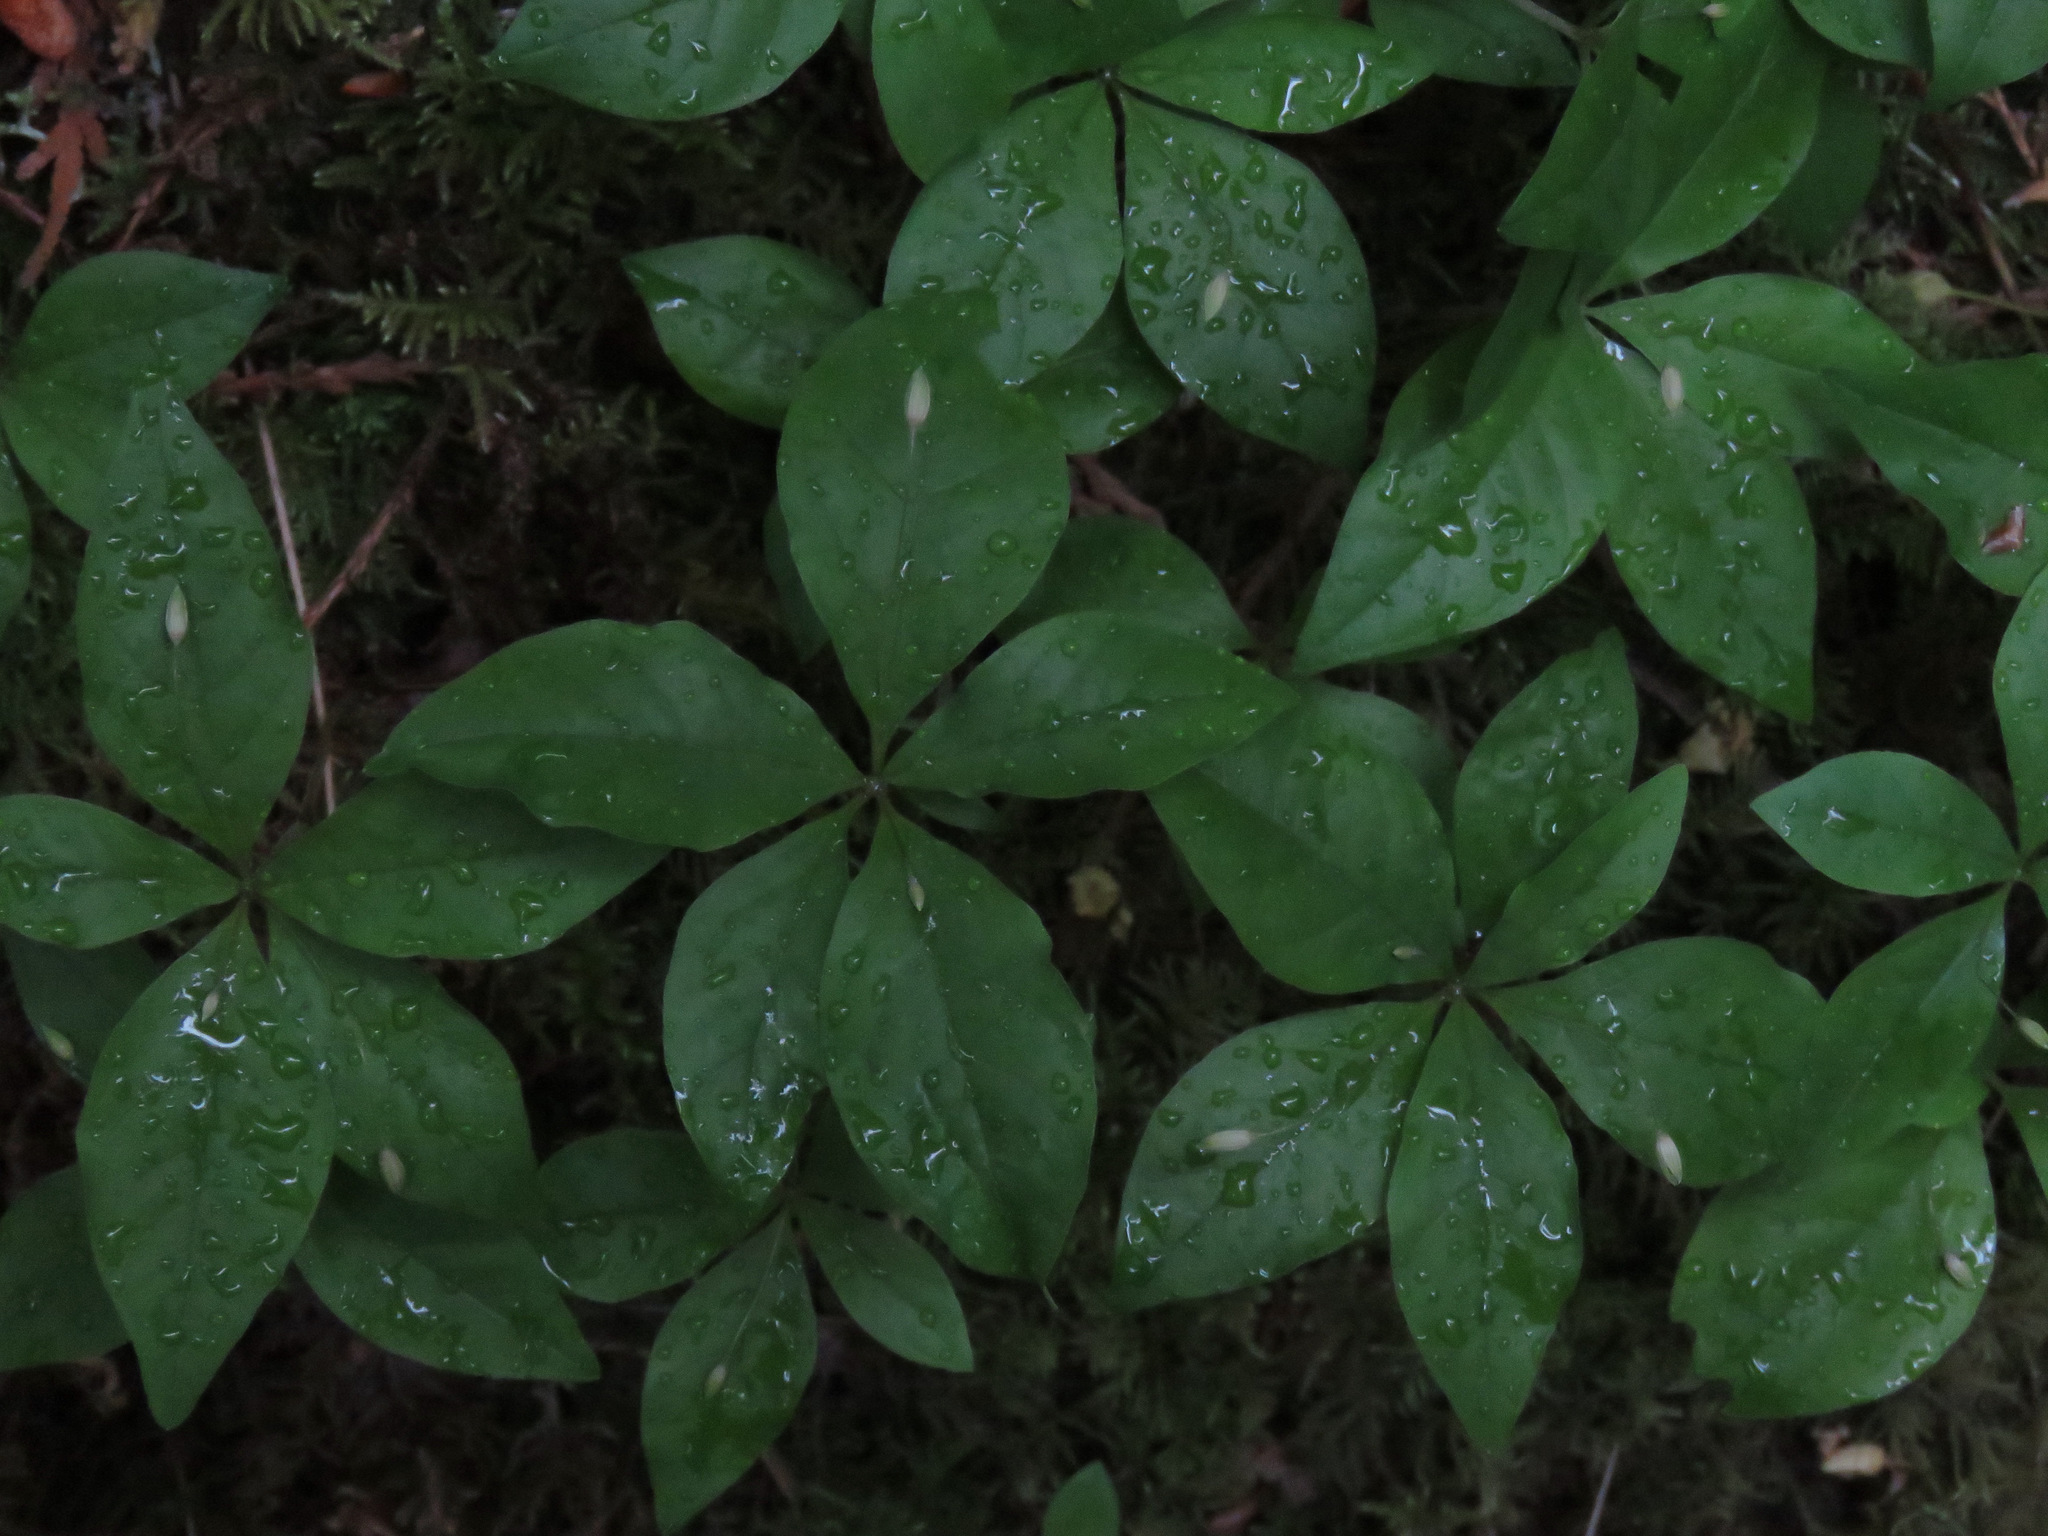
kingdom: Plantae
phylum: Tracheophyta
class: Magnoliopsida
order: Ericales
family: Primulaceae
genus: Lysimachia
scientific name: Lysimachia latifolia
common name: Pacific starflower
